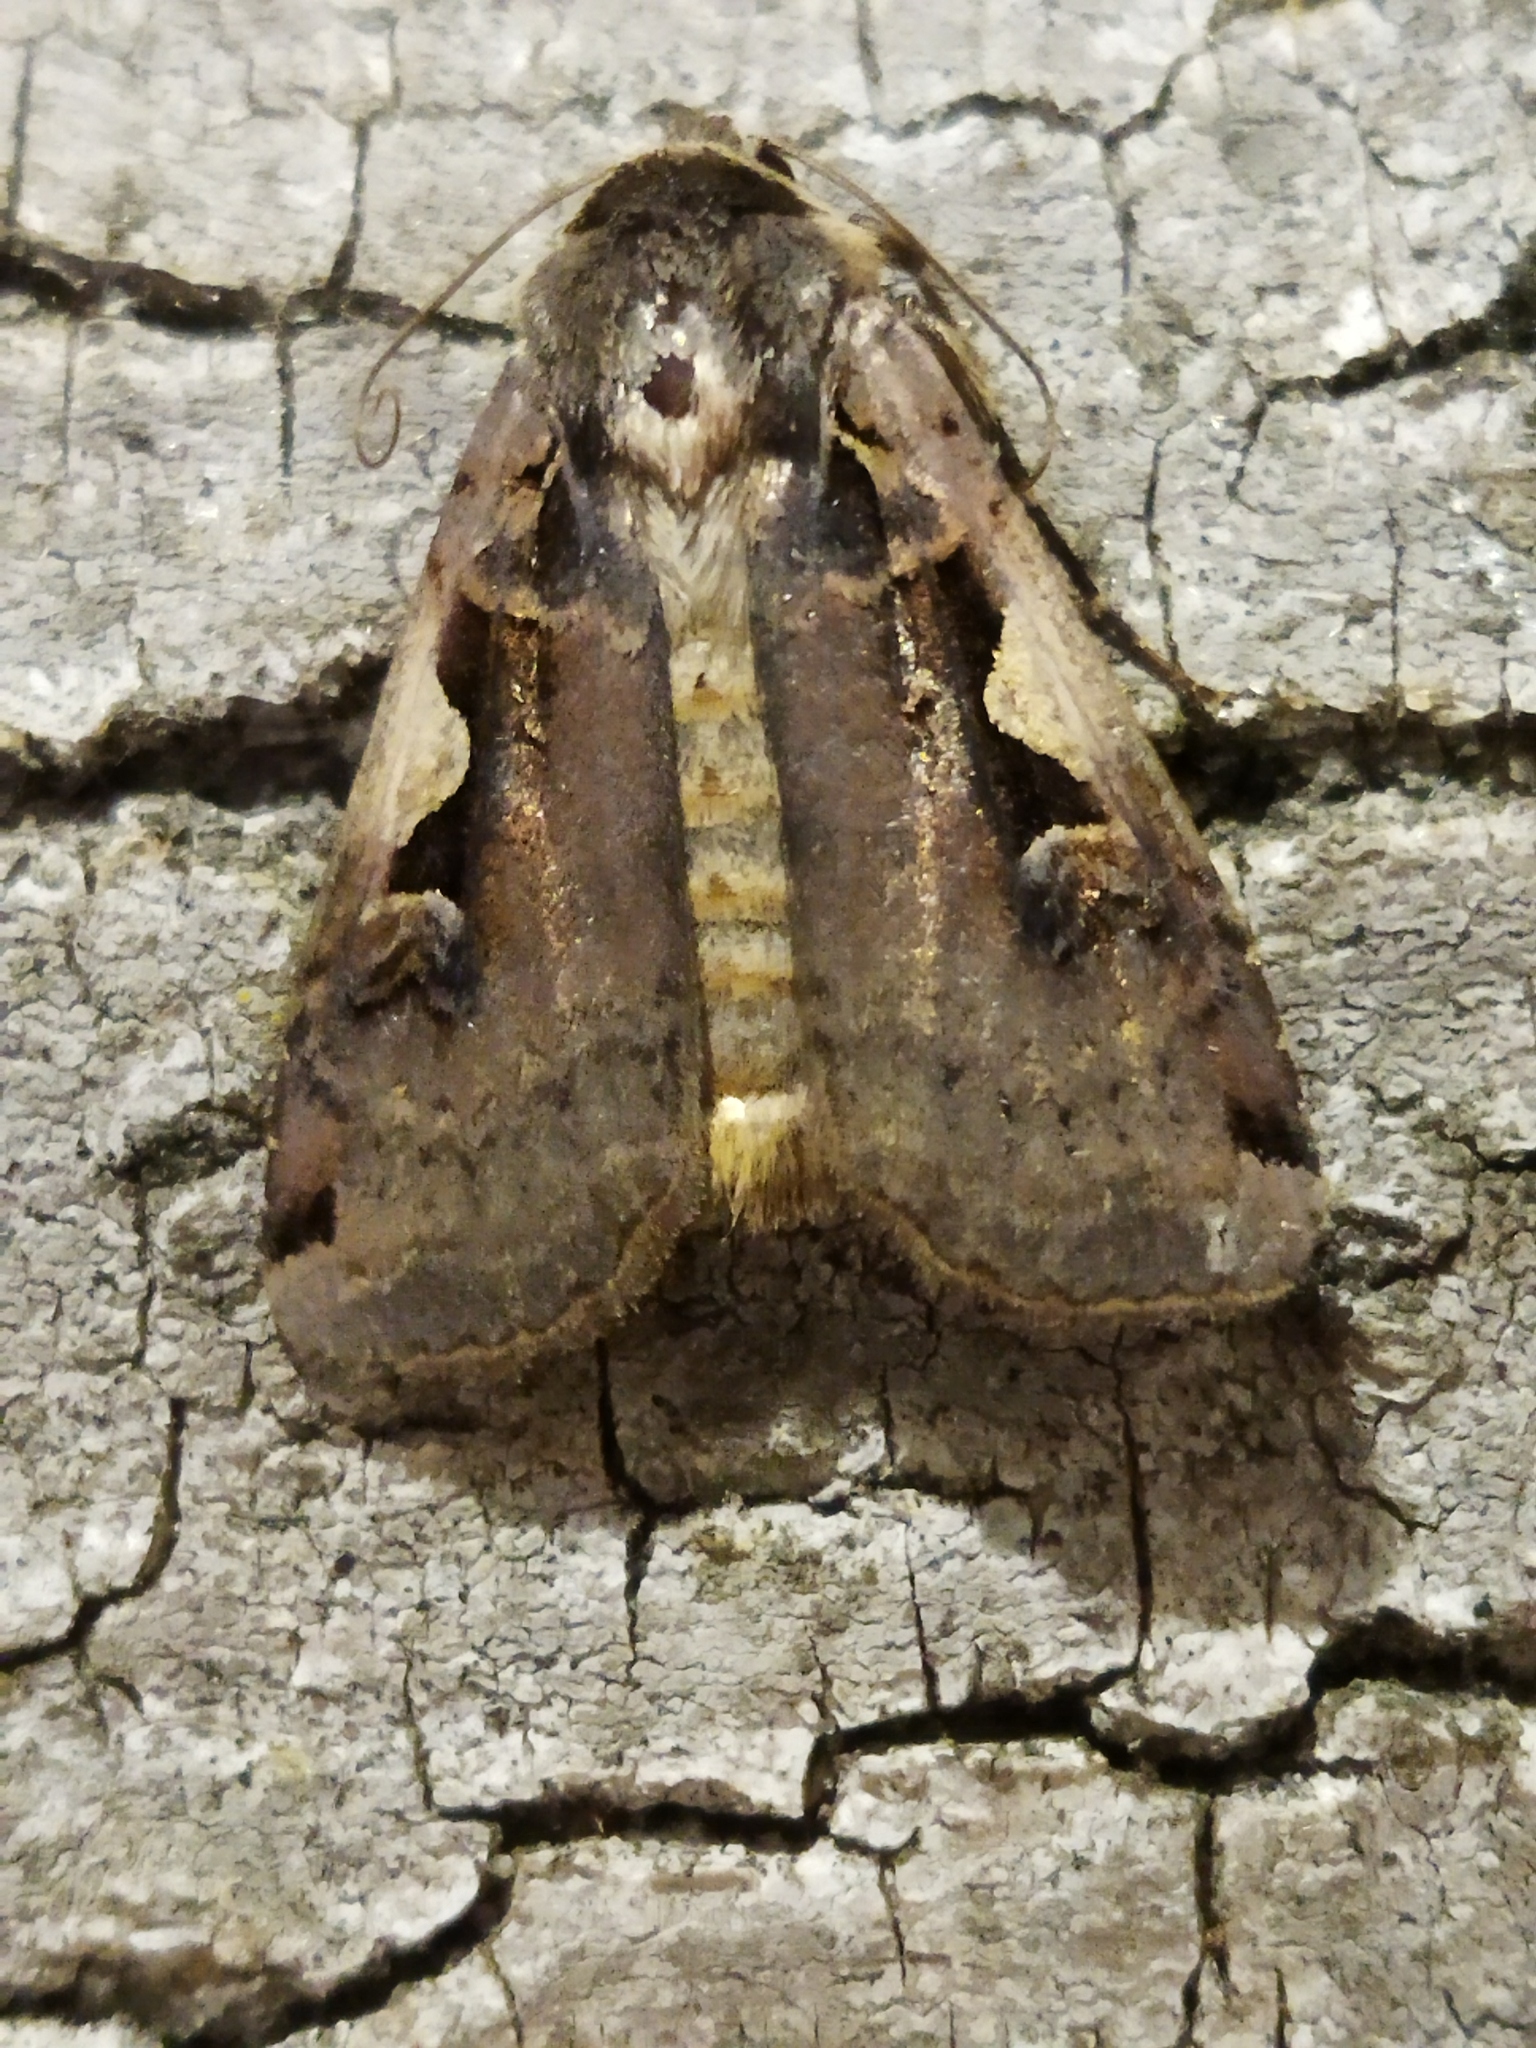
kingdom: Animalia
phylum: Arthropoda
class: Insecta
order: Lepidoptera
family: Noctuidae
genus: Xestia
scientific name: Xestia c-nigrum
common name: Setaceous hebrew character
